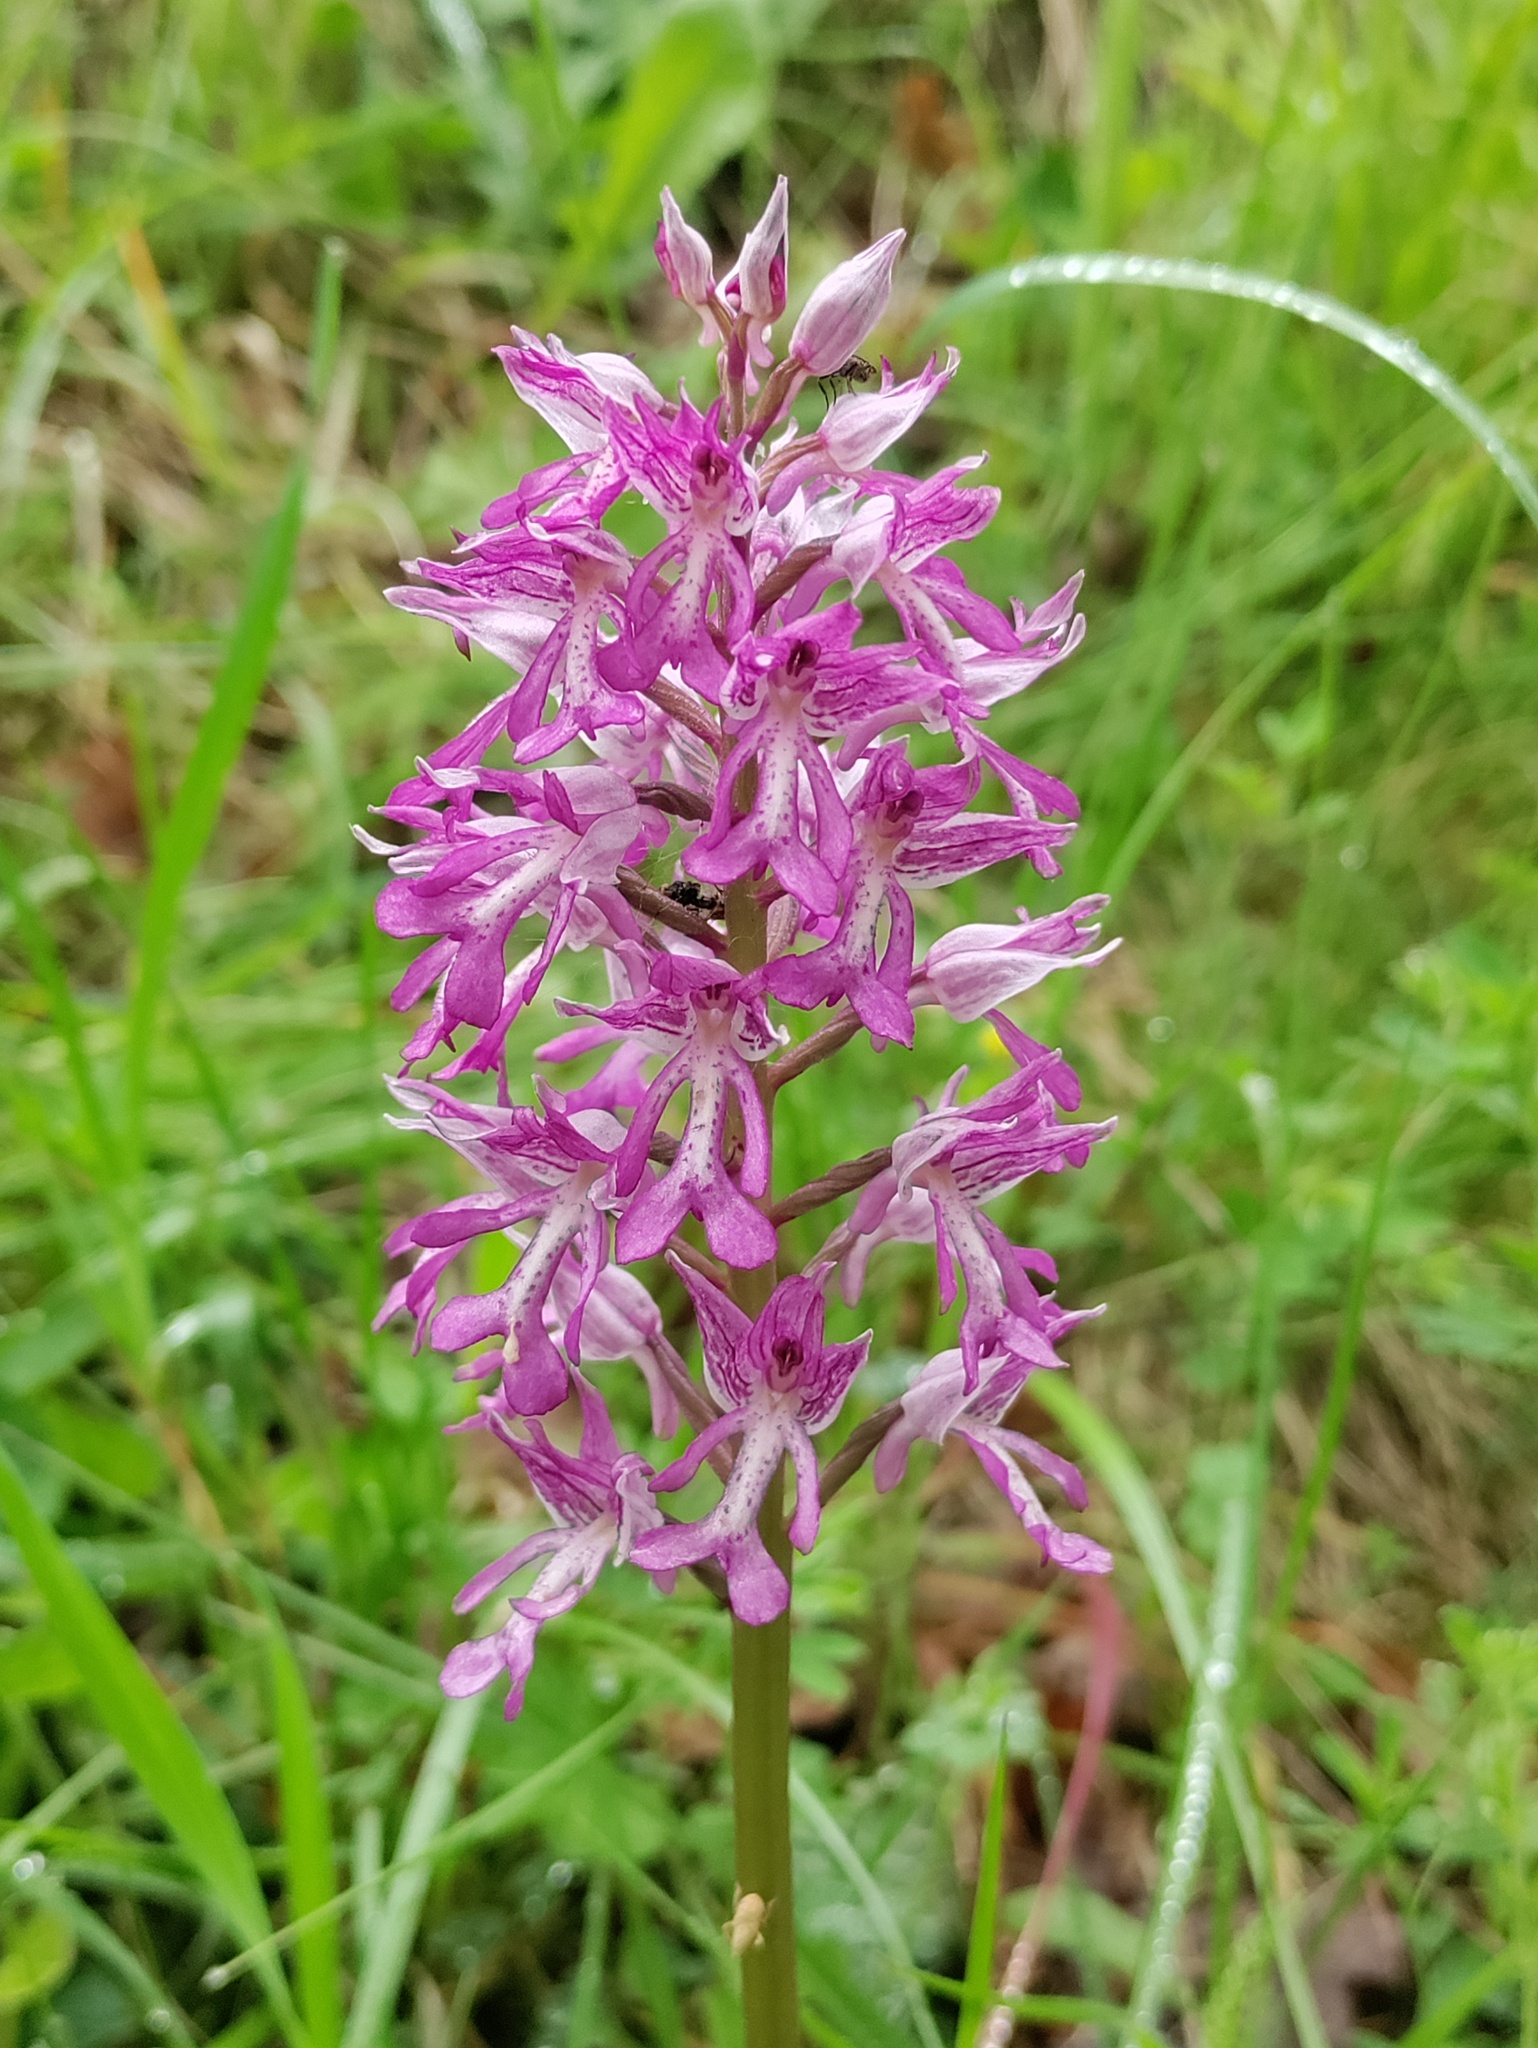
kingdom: Plantae
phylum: Tracheophyta
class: Liliopsida
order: Asparagales
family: Orchidaceae
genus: Orchis
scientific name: Orchis militaris
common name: Military orchid
